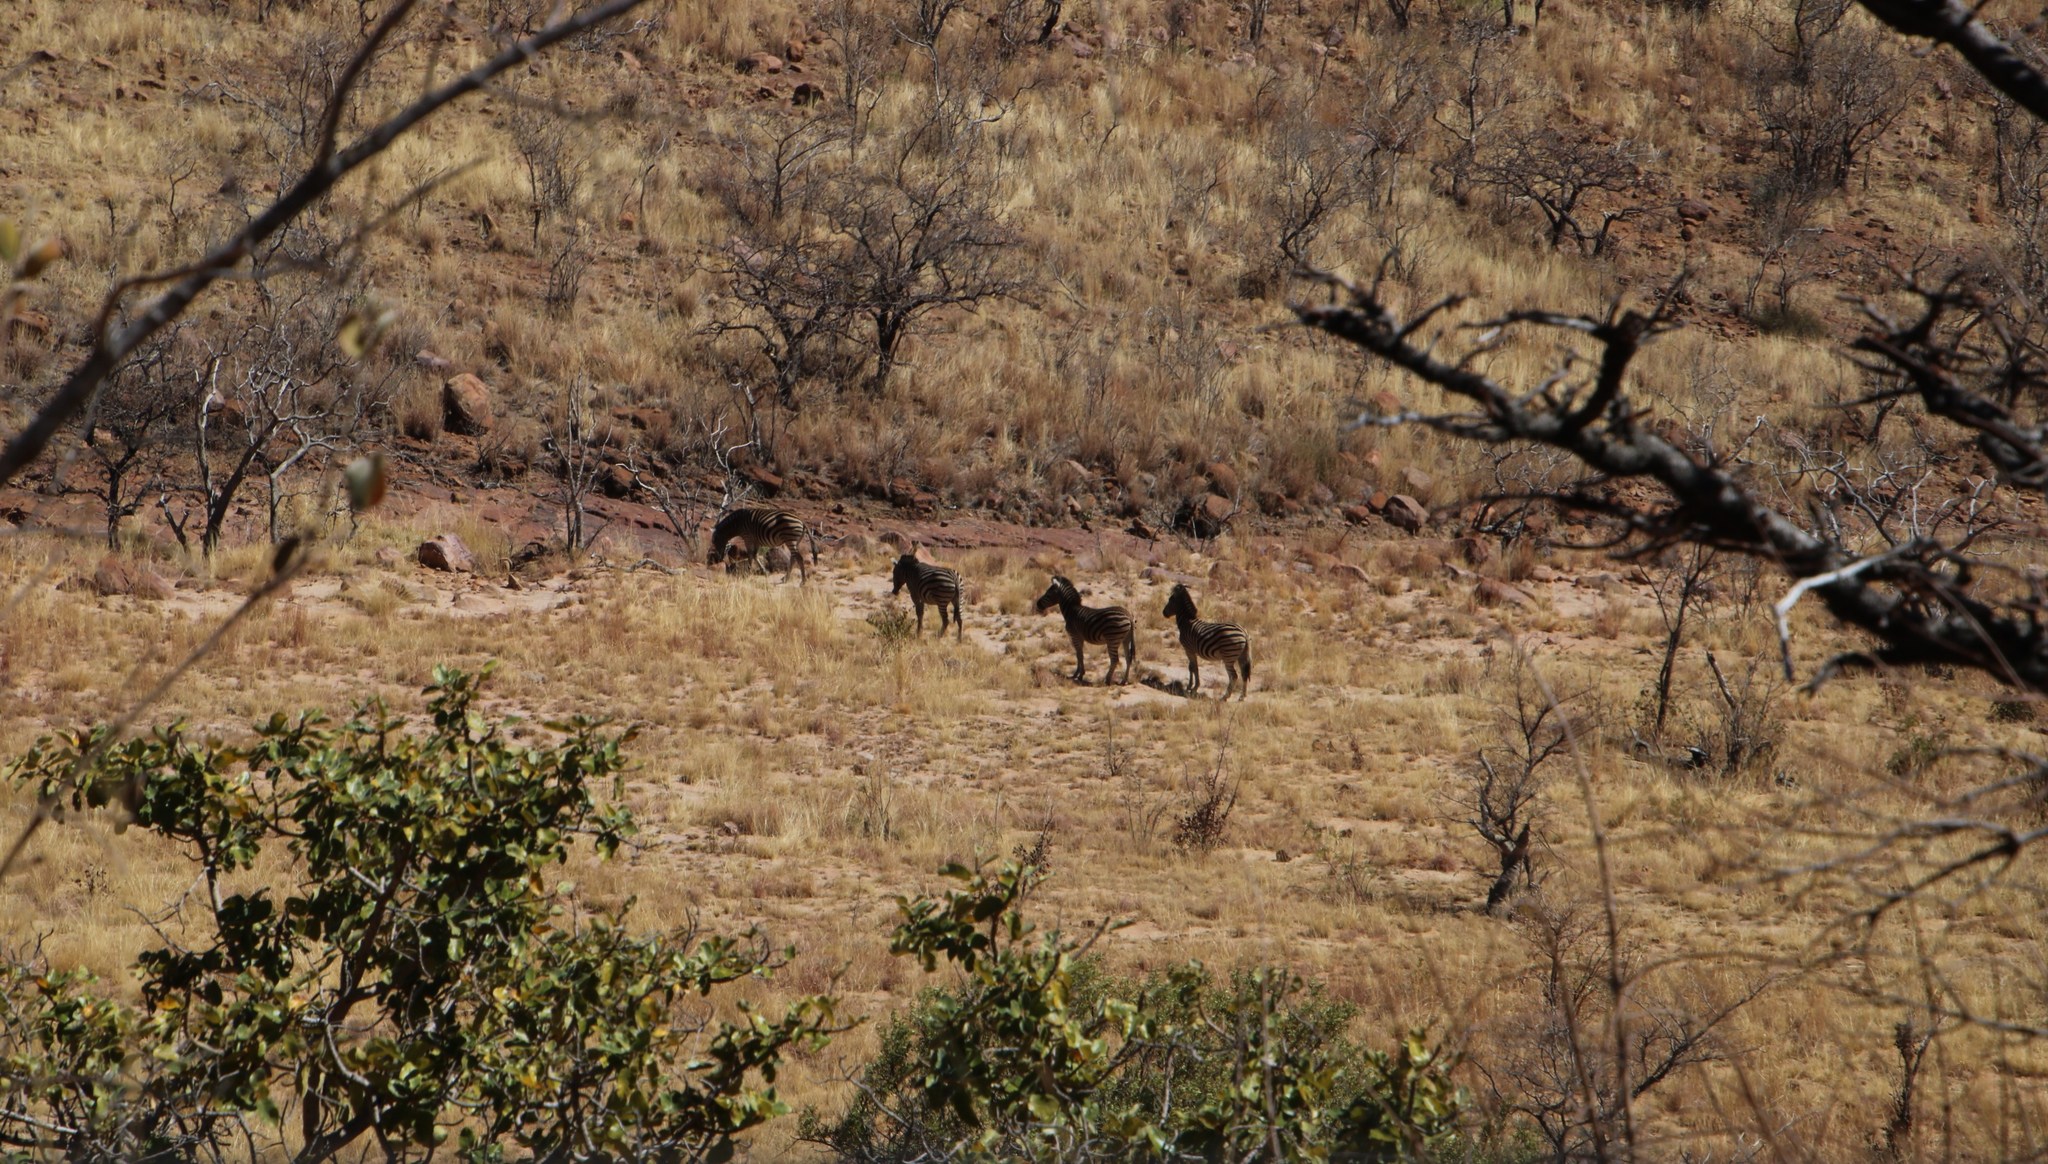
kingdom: Animalia
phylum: Chordata
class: Mammalia
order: Perissodactyla
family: Equidae
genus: Equus
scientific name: Equus quagga
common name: Plains zebra
